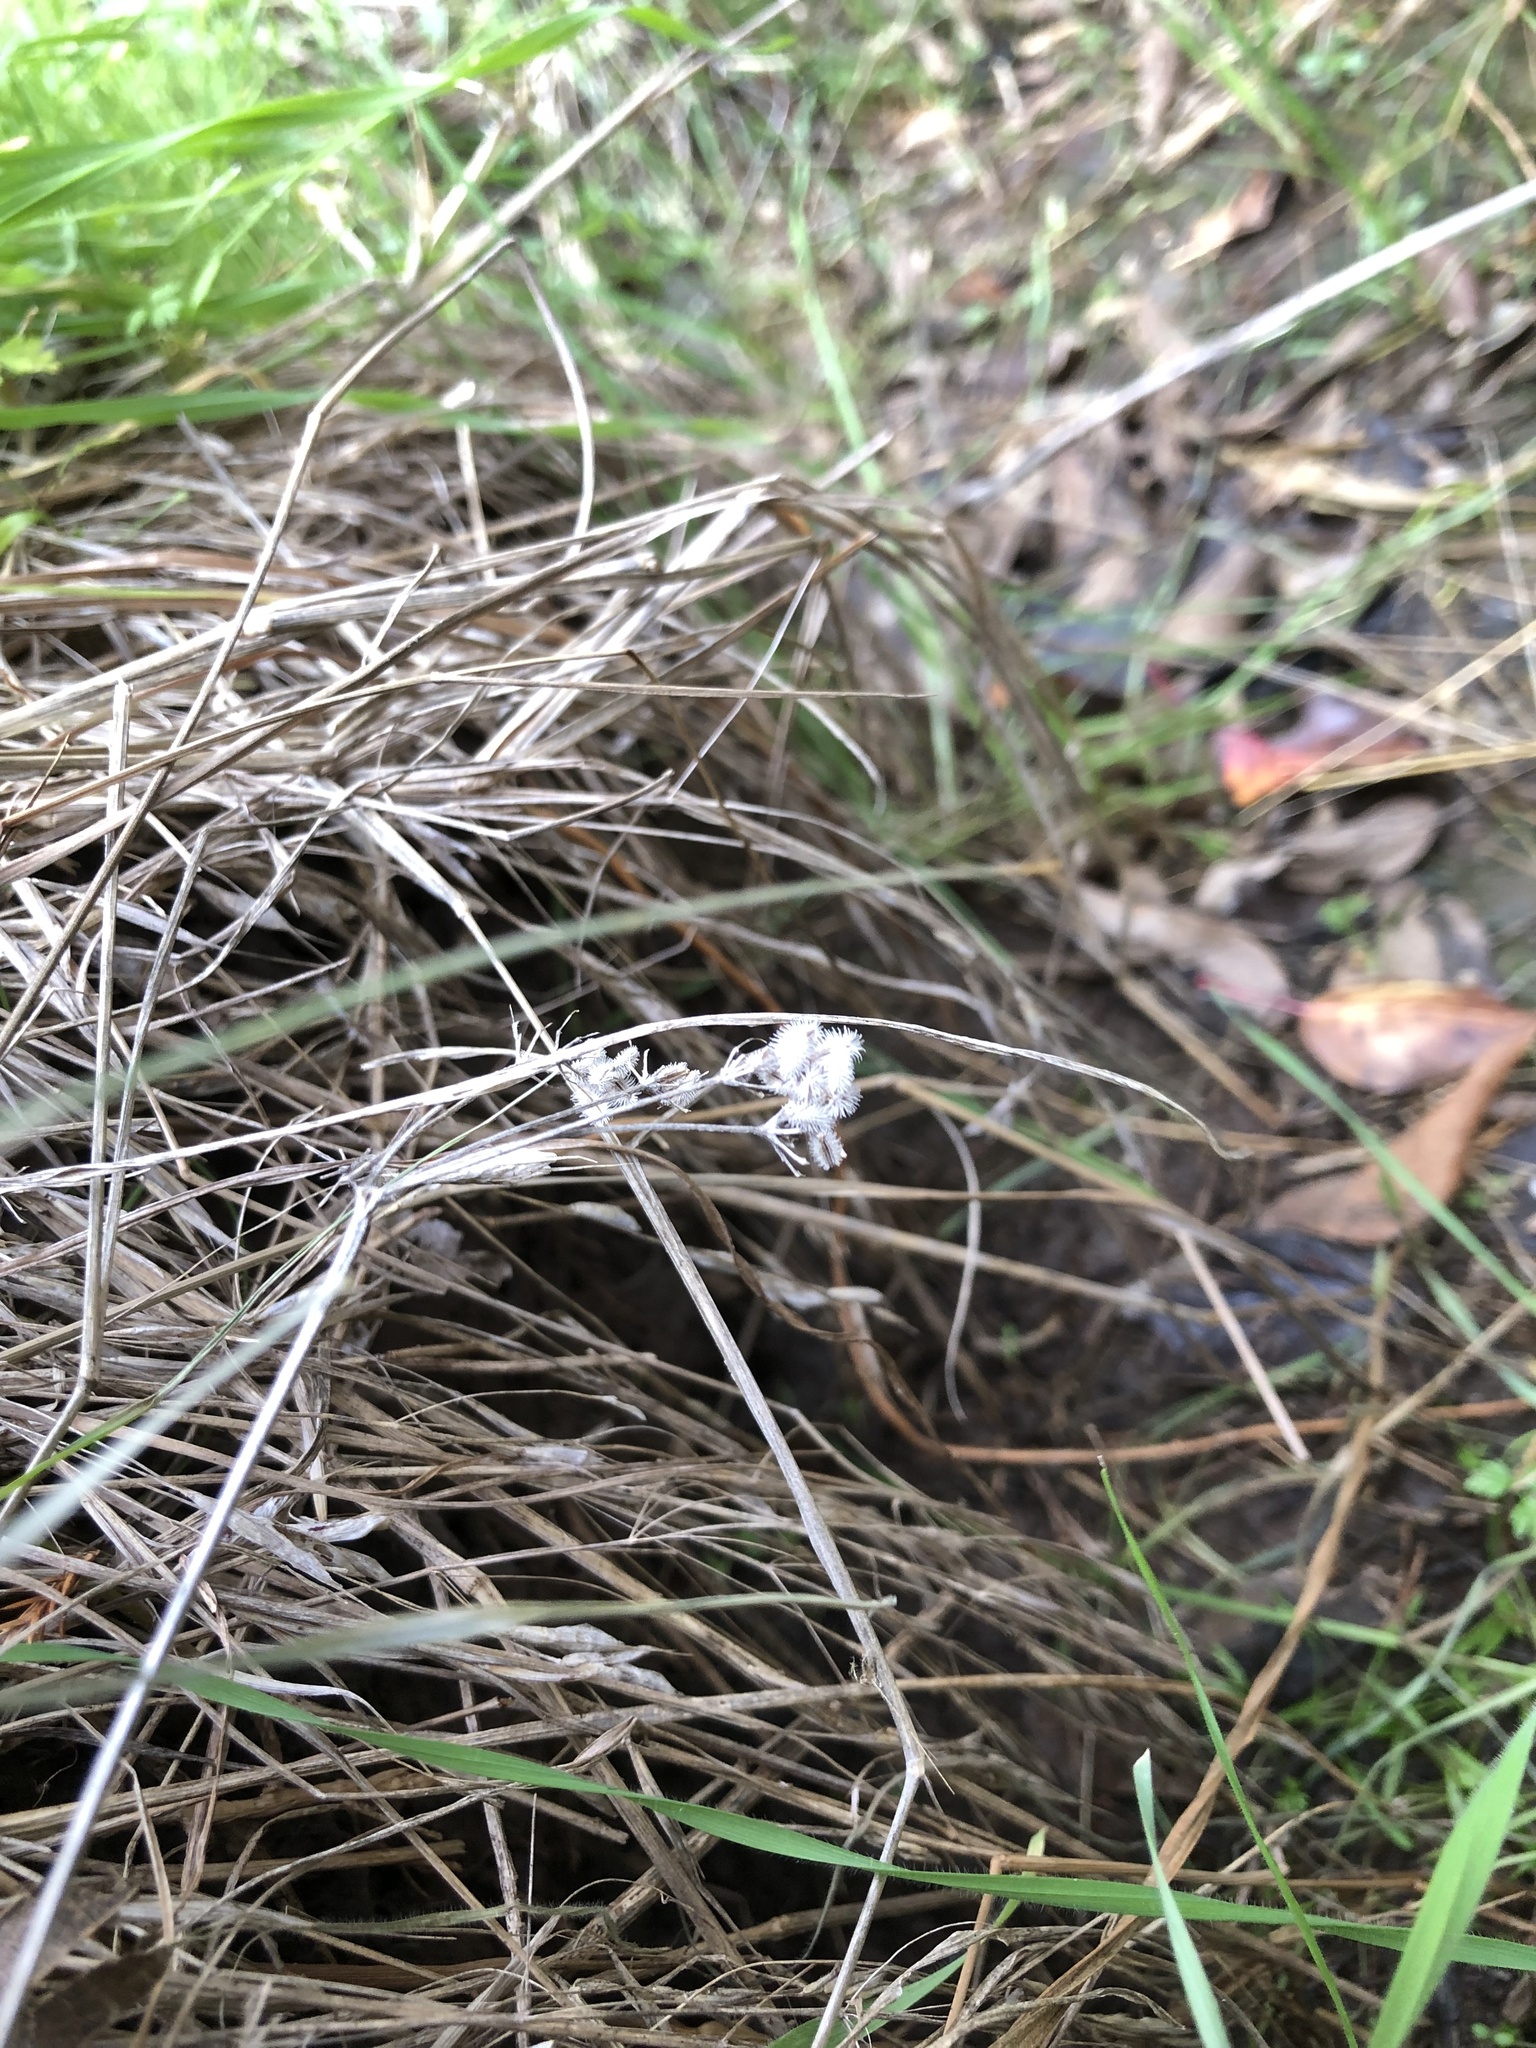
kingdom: Plantae
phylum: Tracheophyta
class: Magnoliopsida
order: Apiales
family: Apiaceae
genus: Torilis
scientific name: Torilis arvensis
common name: Spreading hedge-parsley
